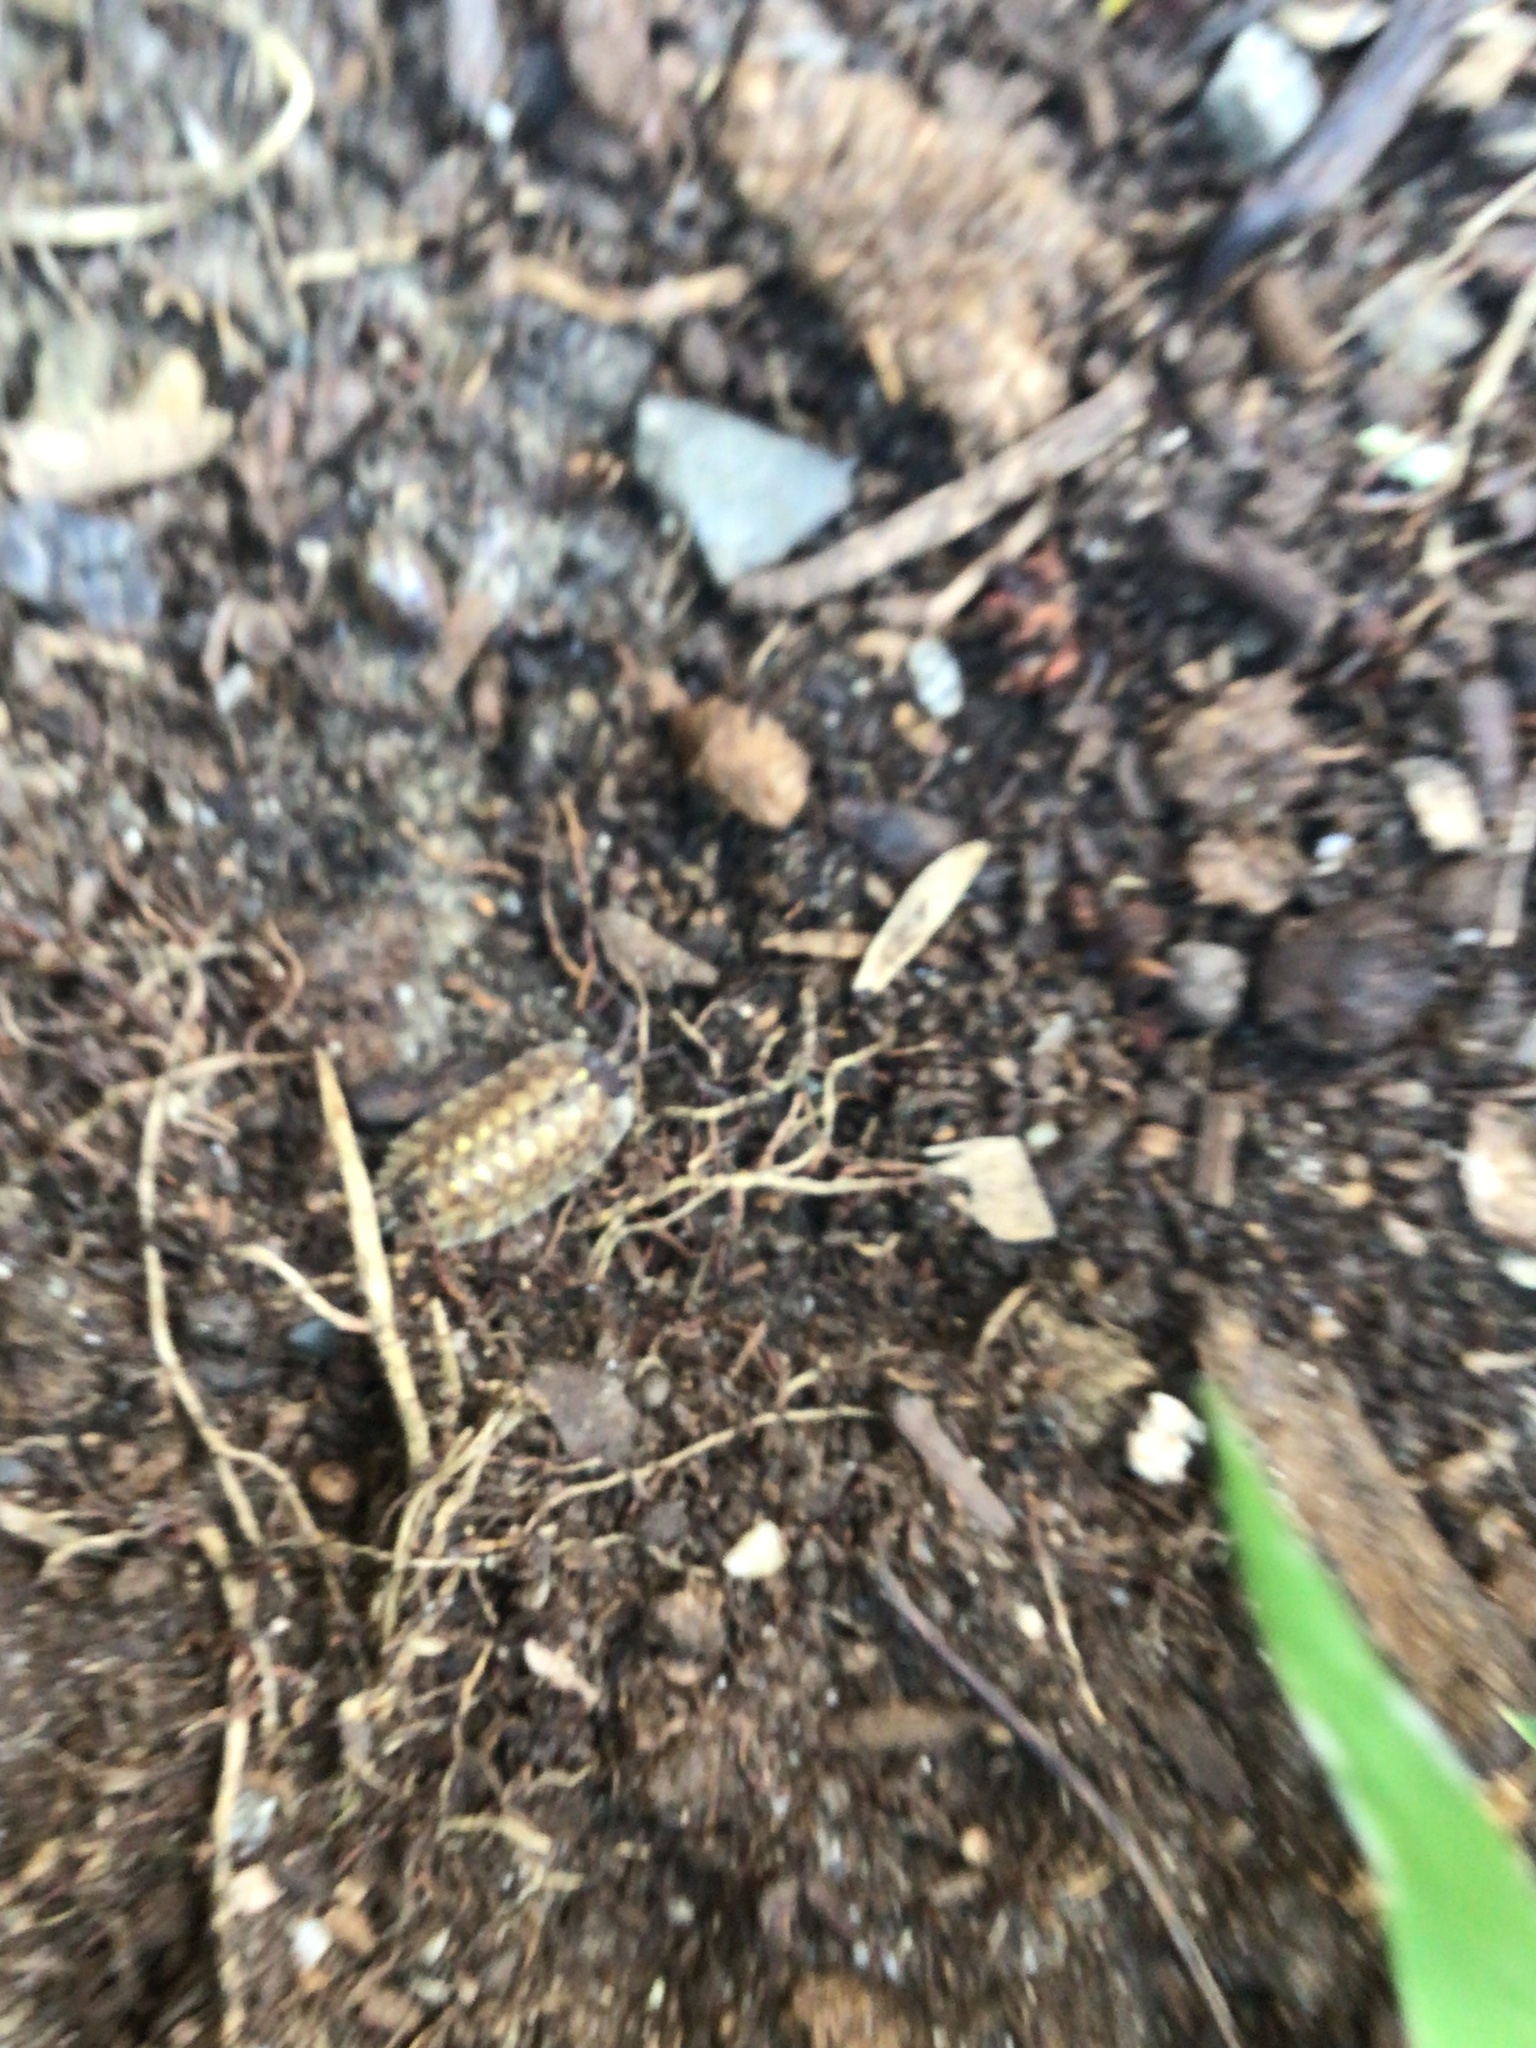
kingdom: Animalia
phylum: Arthropoda
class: Malacostraca
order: Isopoda
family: Porcellionidae
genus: Porcellio
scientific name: Porcellio spinicornis
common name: Painted woodlouse
